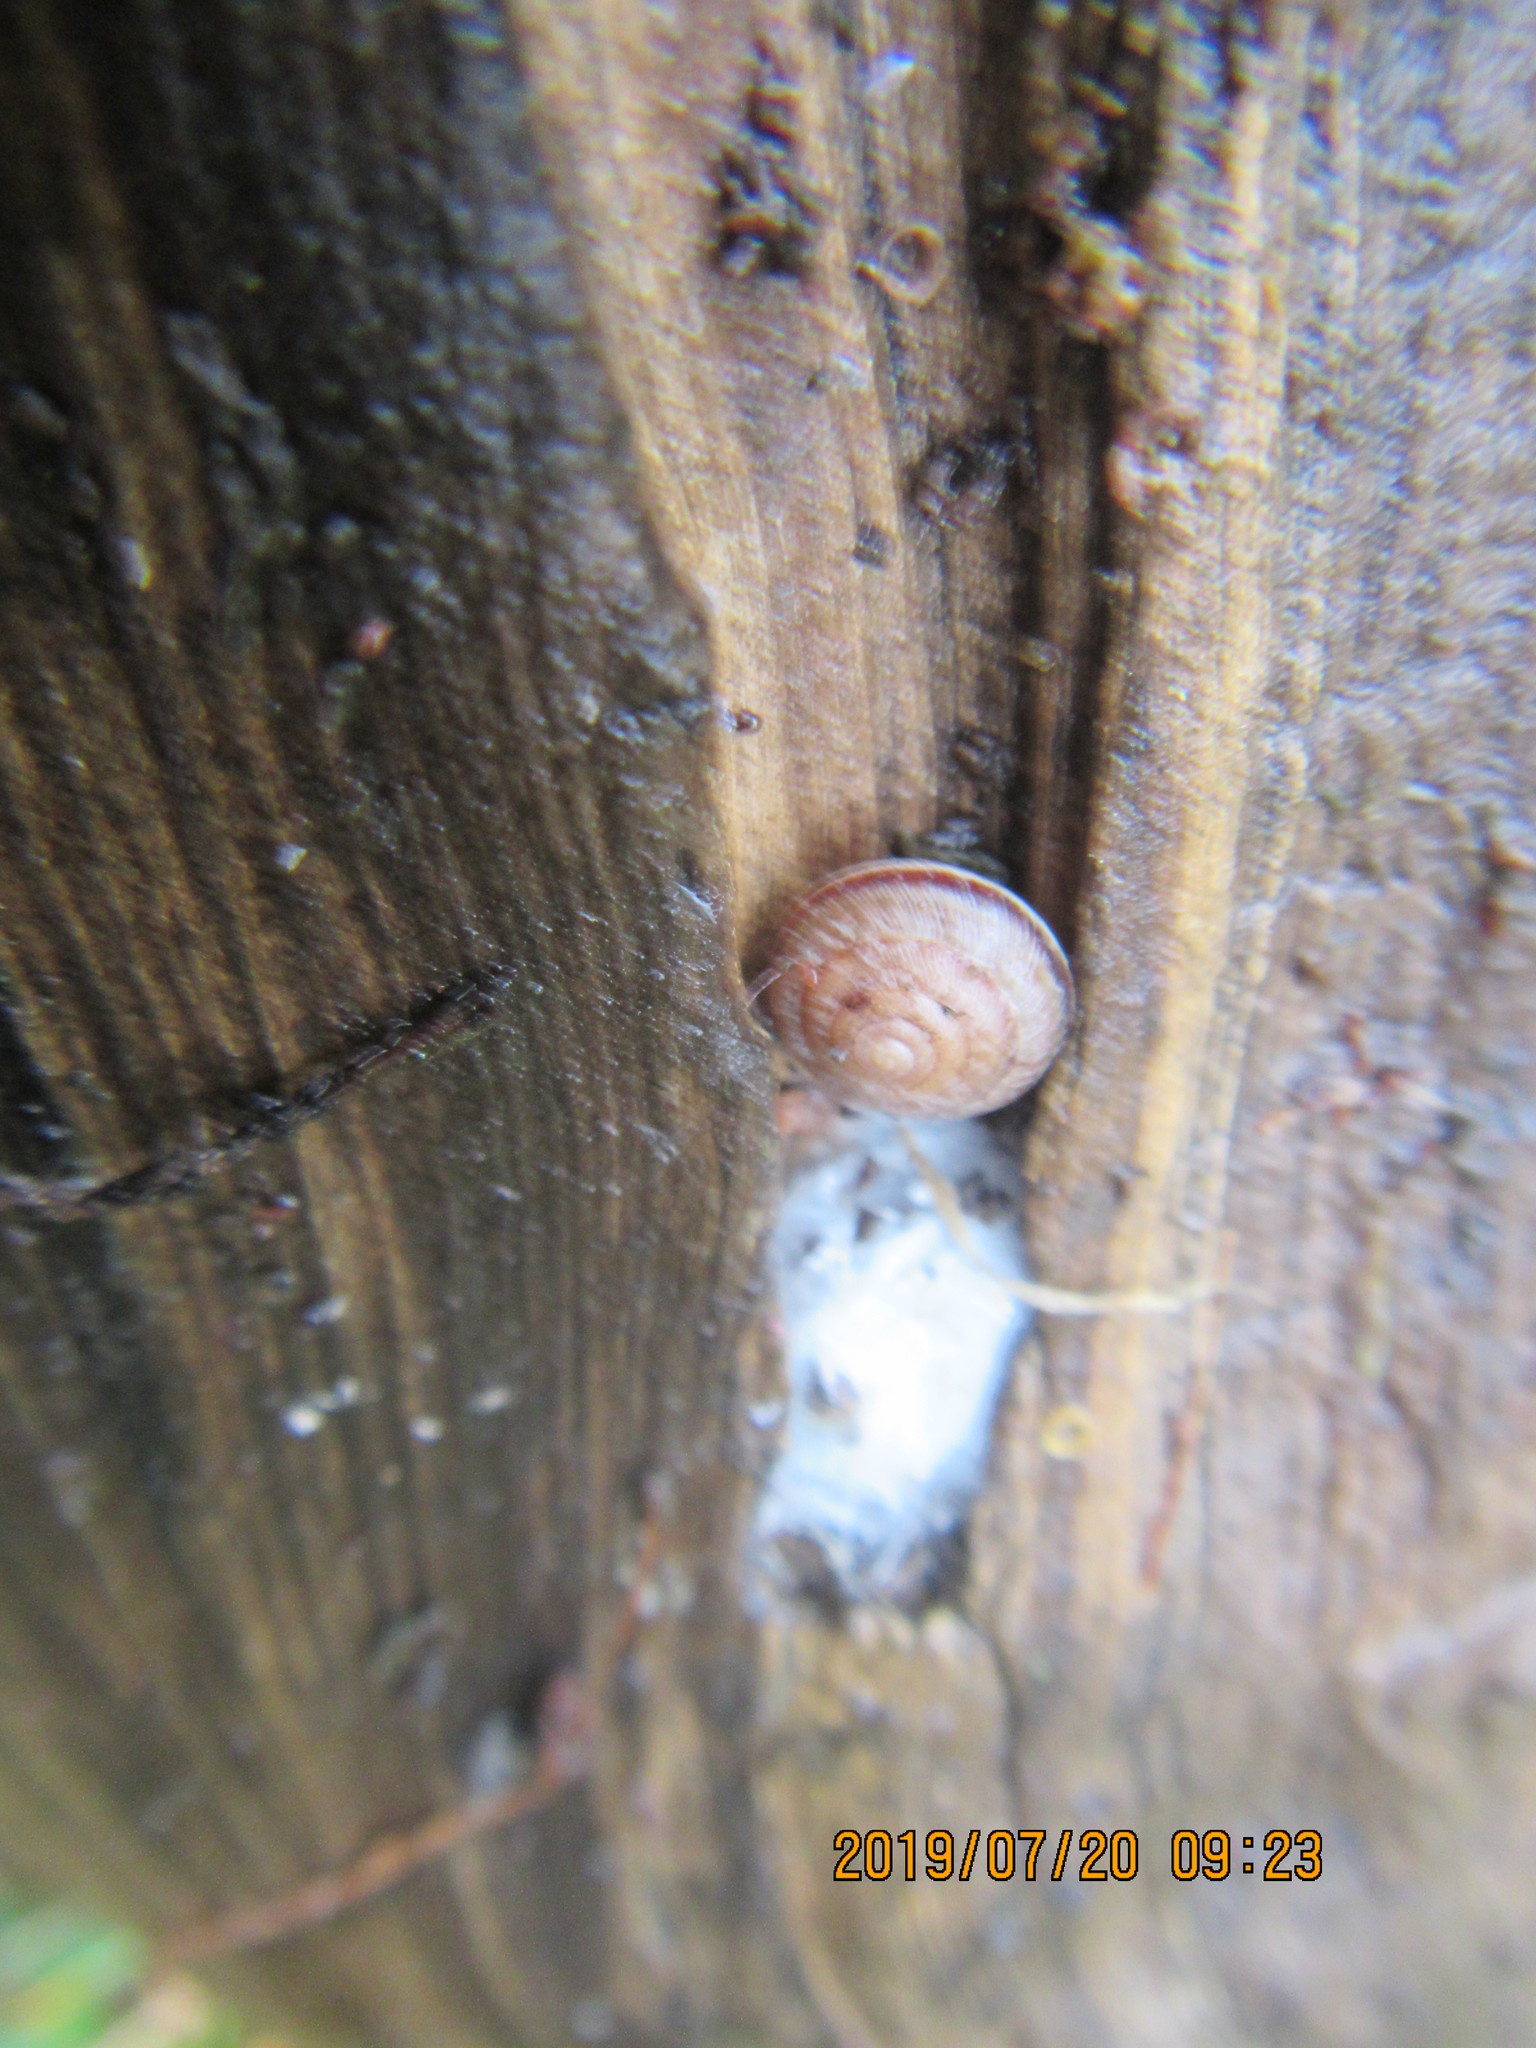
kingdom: Animalia
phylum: Mollusca
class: Gastropoda
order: Stylommatophora
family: Geomitridae
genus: Xeroplexa
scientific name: Xeroplexa intersecta
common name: Wrinkled snail
